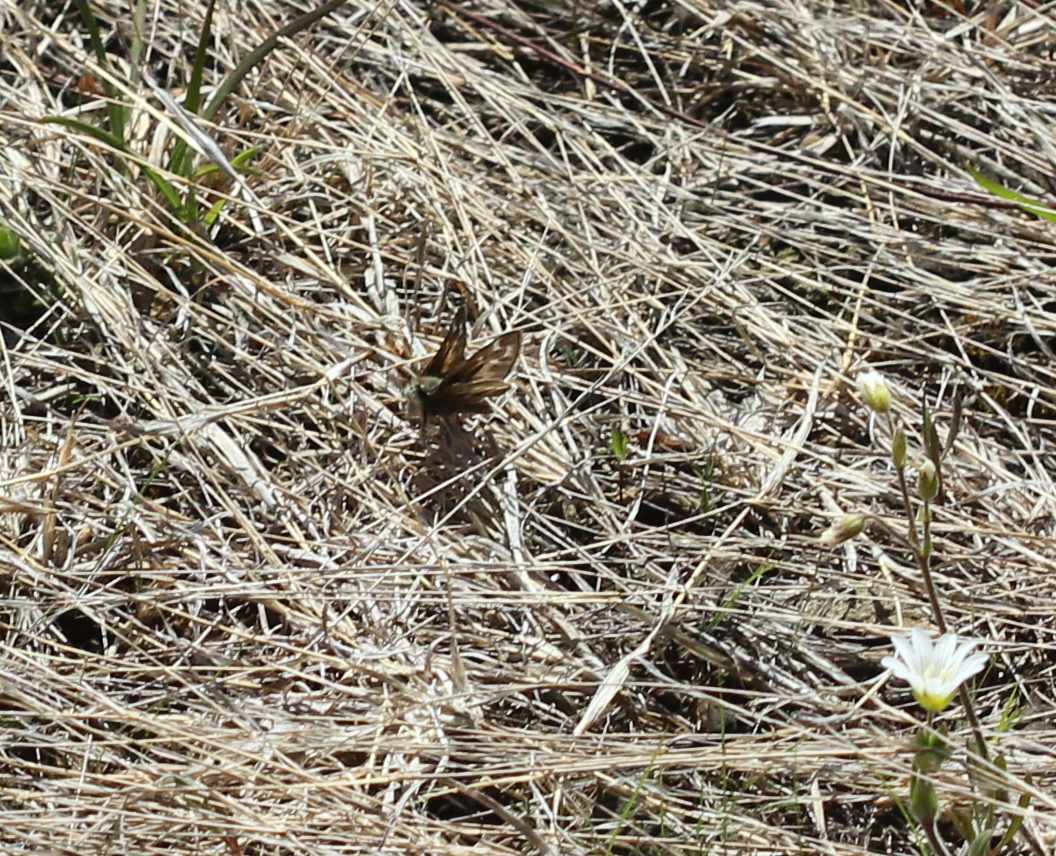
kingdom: Animalia
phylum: Arthropoda
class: Insecta
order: Lepidoptera
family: Hesperiidae
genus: Hesperia
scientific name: Hesperia metea
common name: Cobweb skipper
